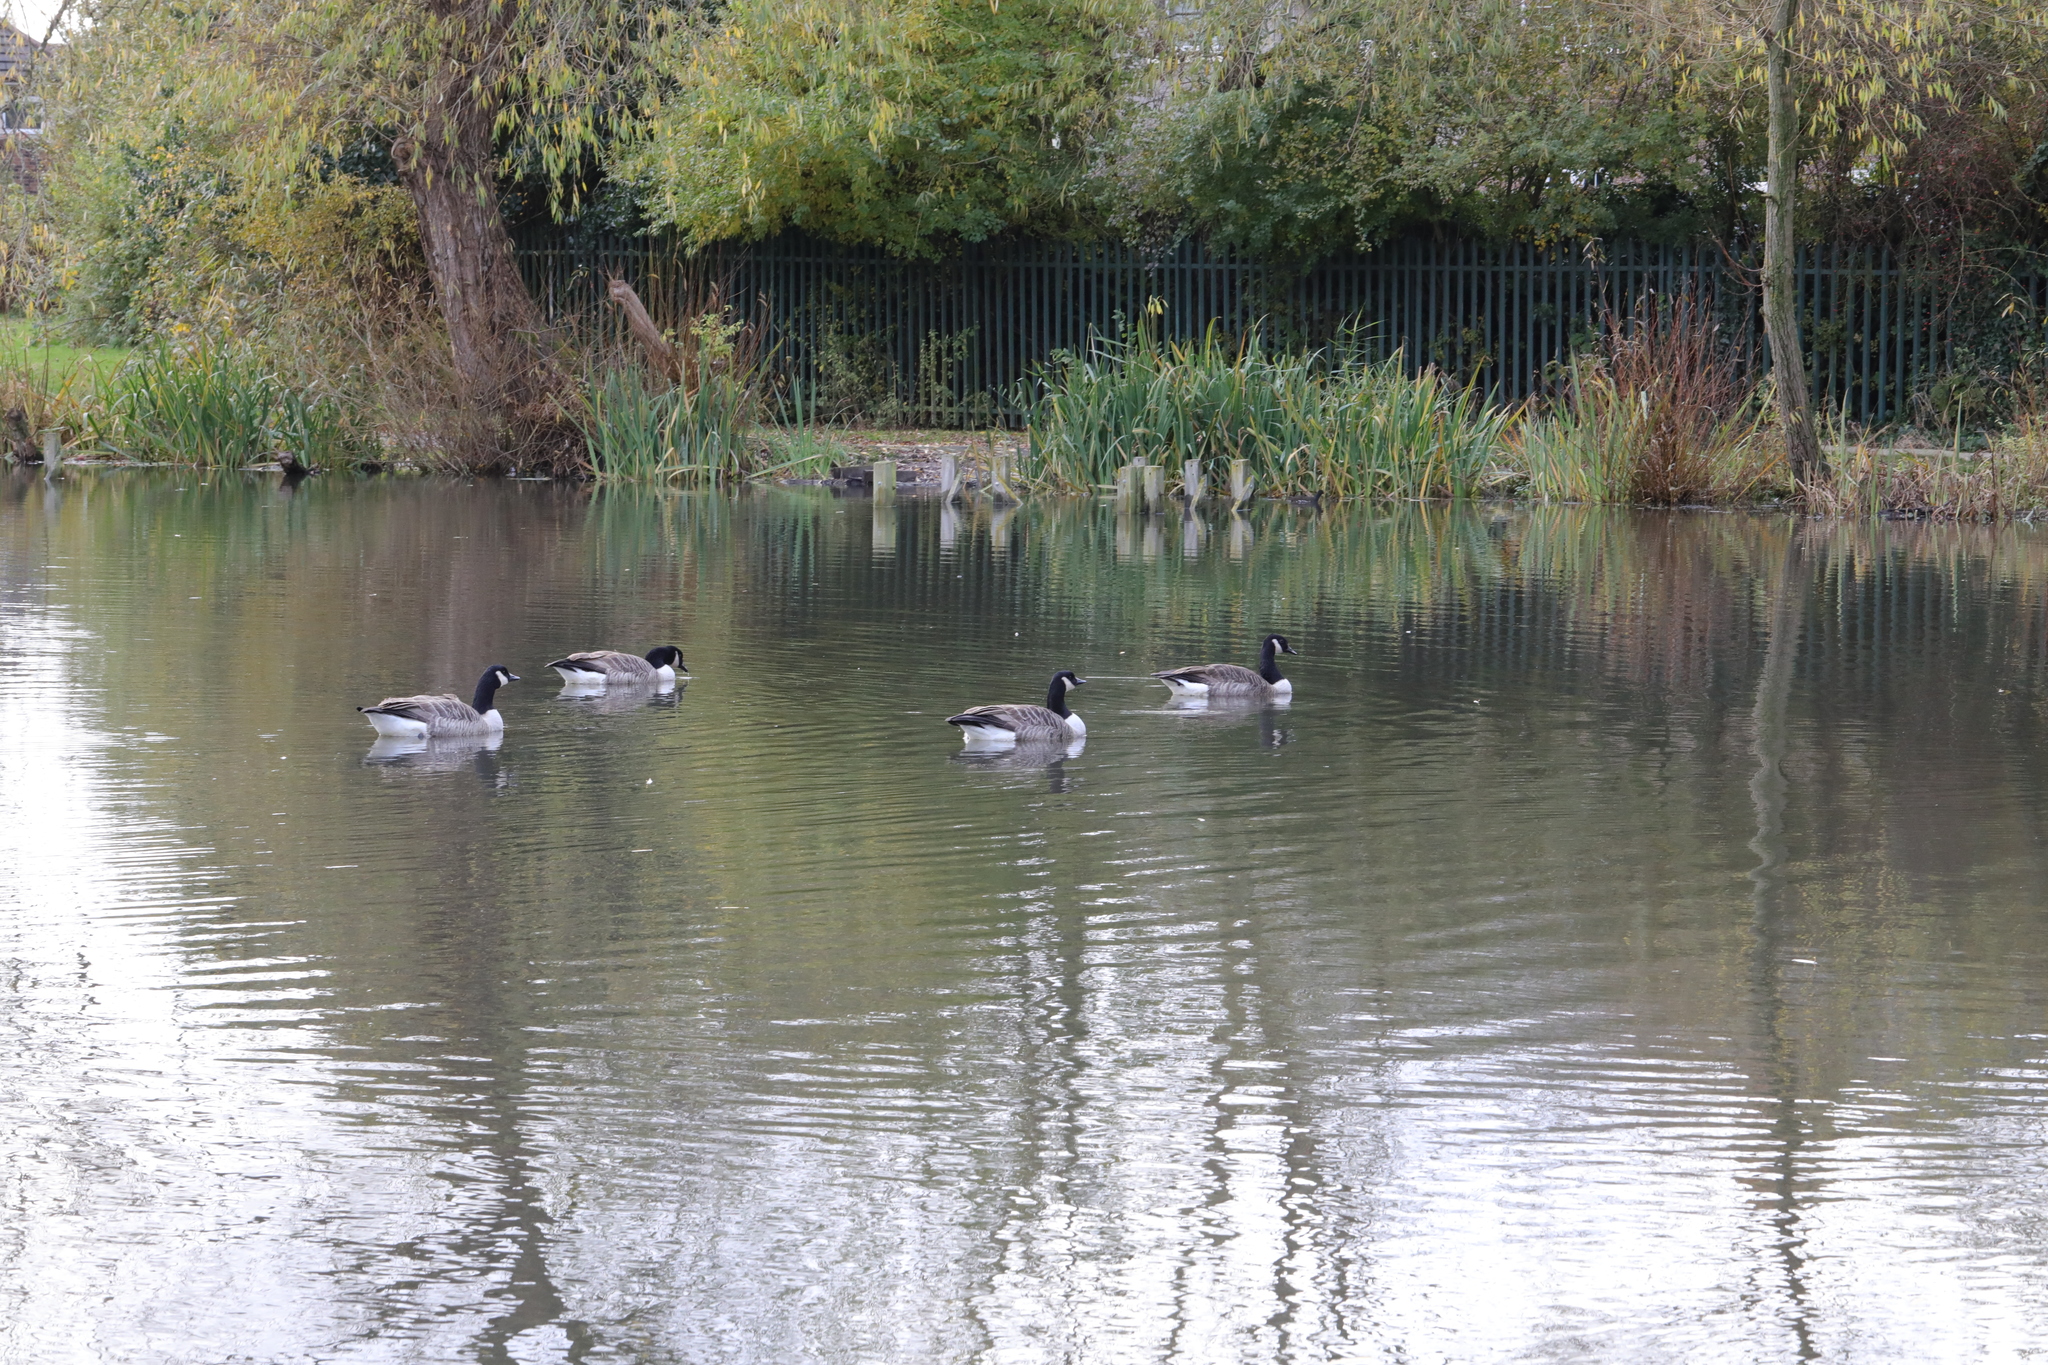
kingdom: Animalia
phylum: Chordata
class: Aves
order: Anseriformes
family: Anatidae
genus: Branta
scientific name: Branta canadensis
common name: Canada goose
